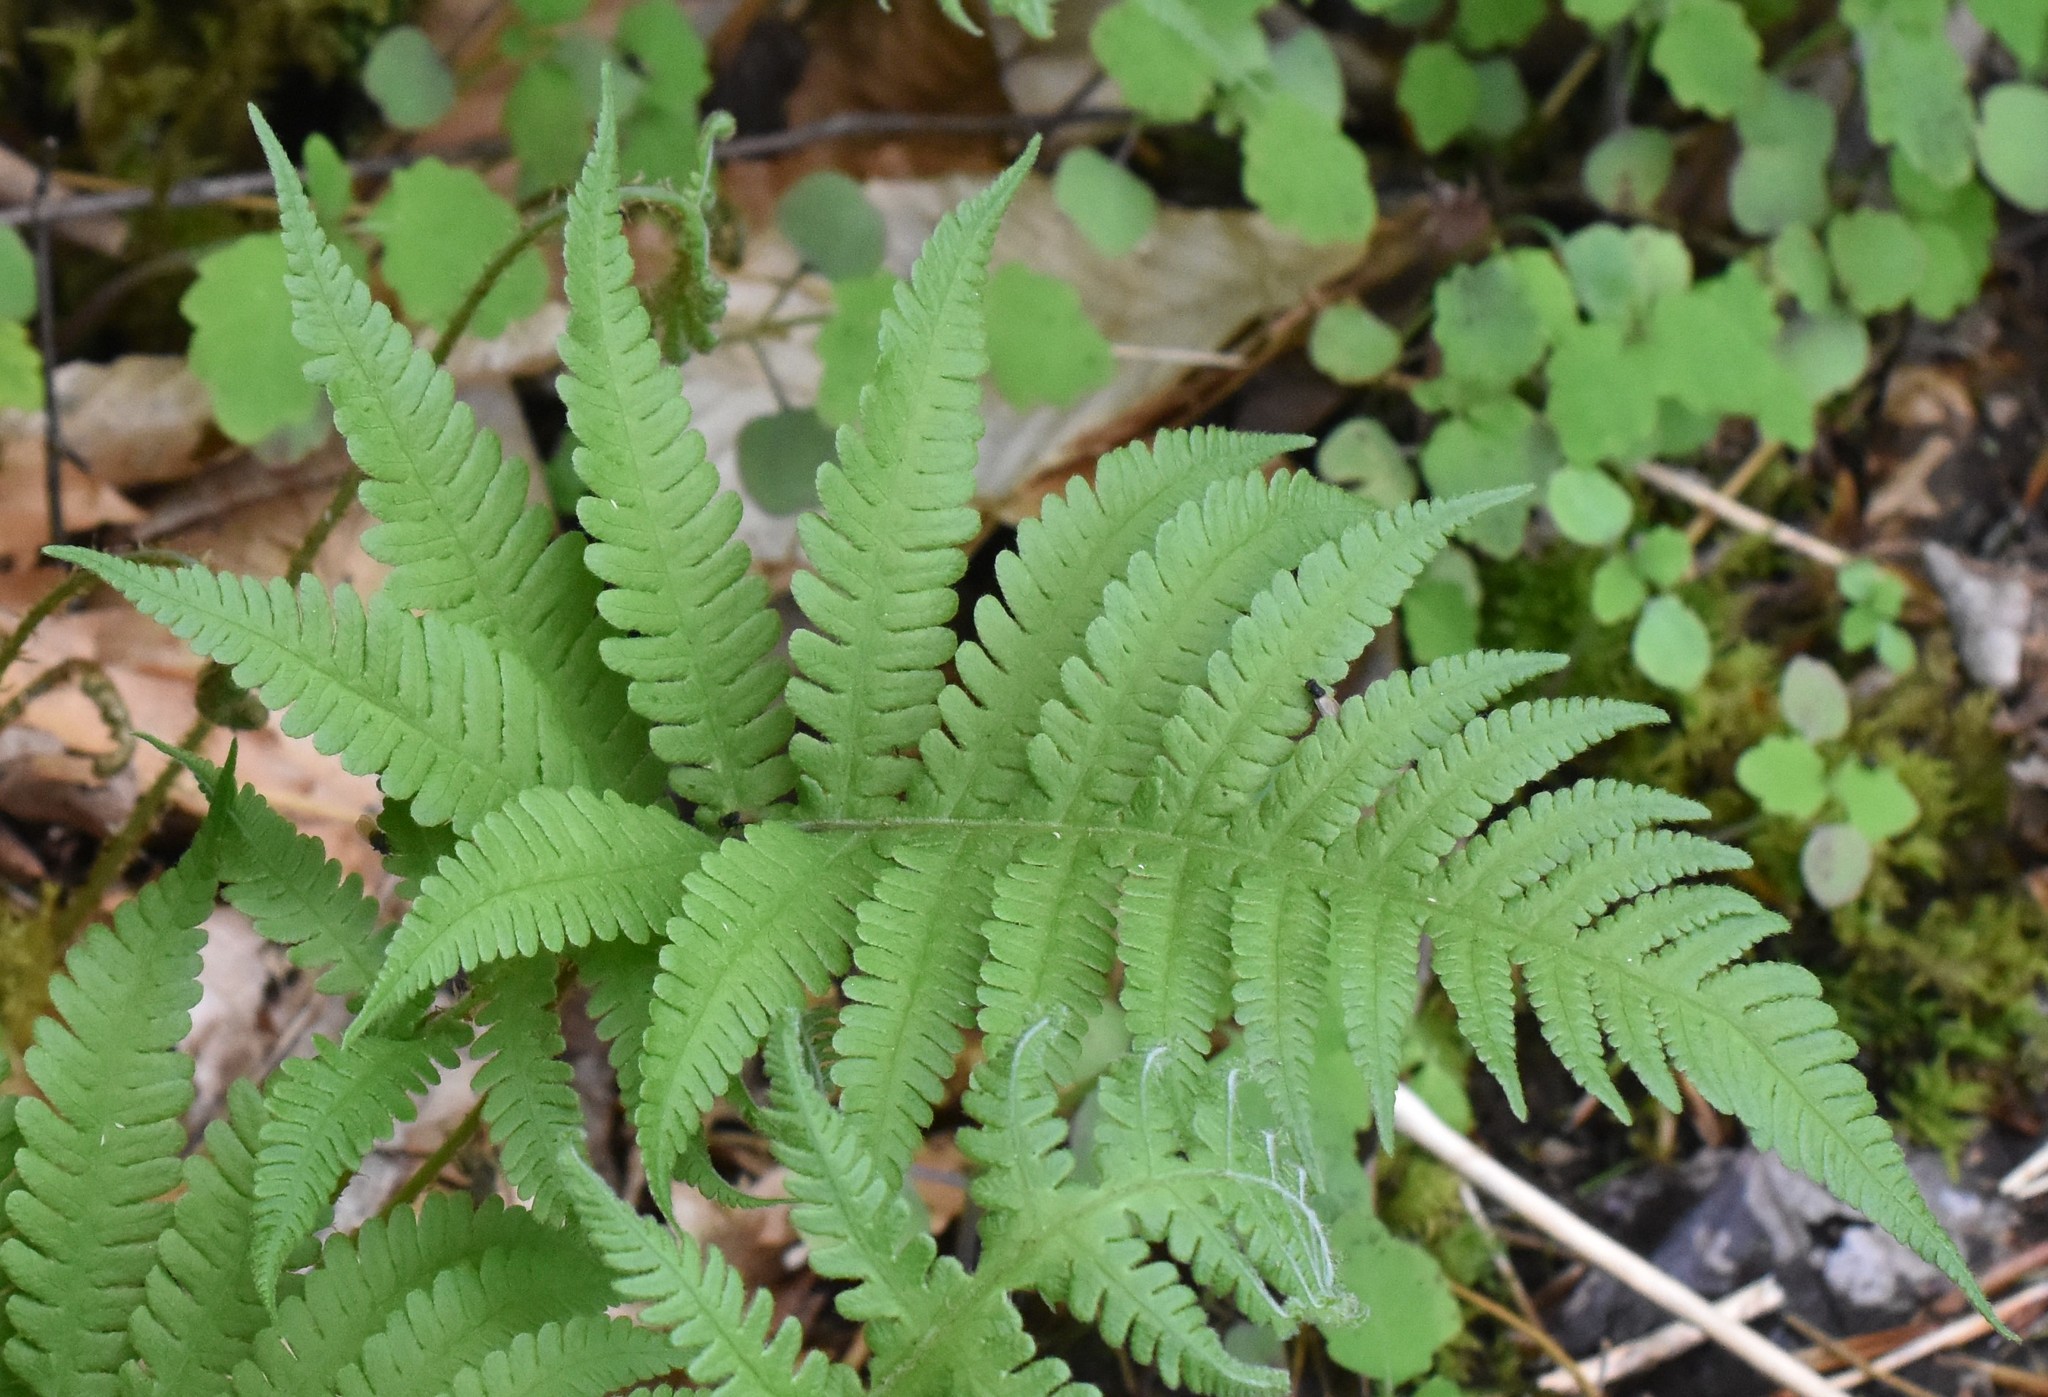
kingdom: Plantae
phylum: Tracheophyta
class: Polypodiopsida
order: Polypodiales
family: Thelypteridaceae
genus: Phegopteris
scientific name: Phegopteris connectilis
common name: Beech fern
